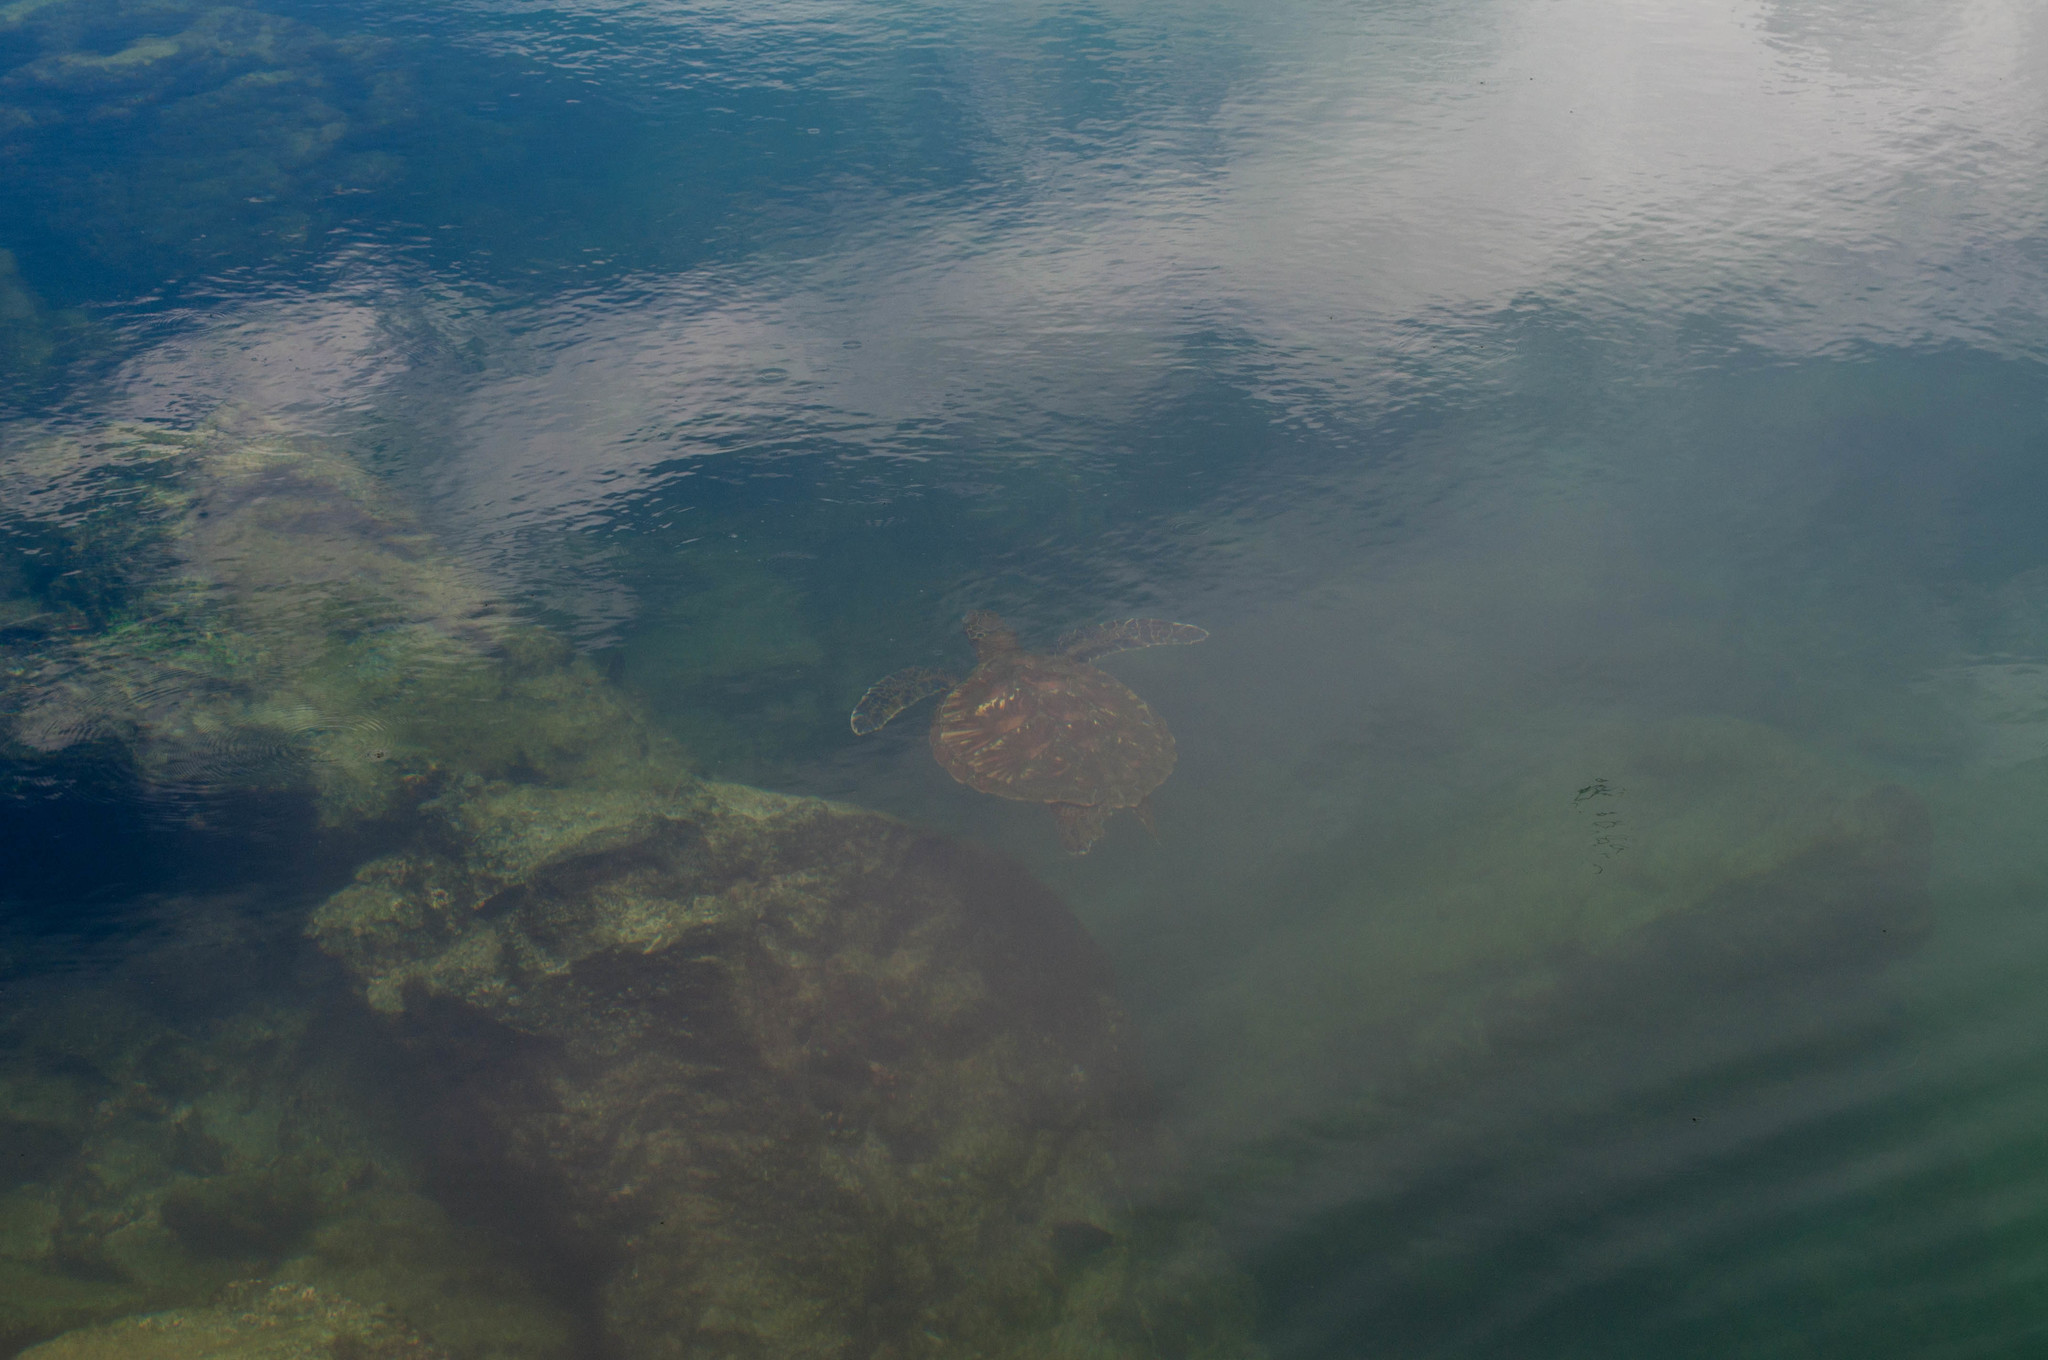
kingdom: Animalia
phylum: Chordata
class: Testudines
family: Cheloniidae
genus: Chelonia
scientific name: Chelonia mydas
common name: Green turtle
